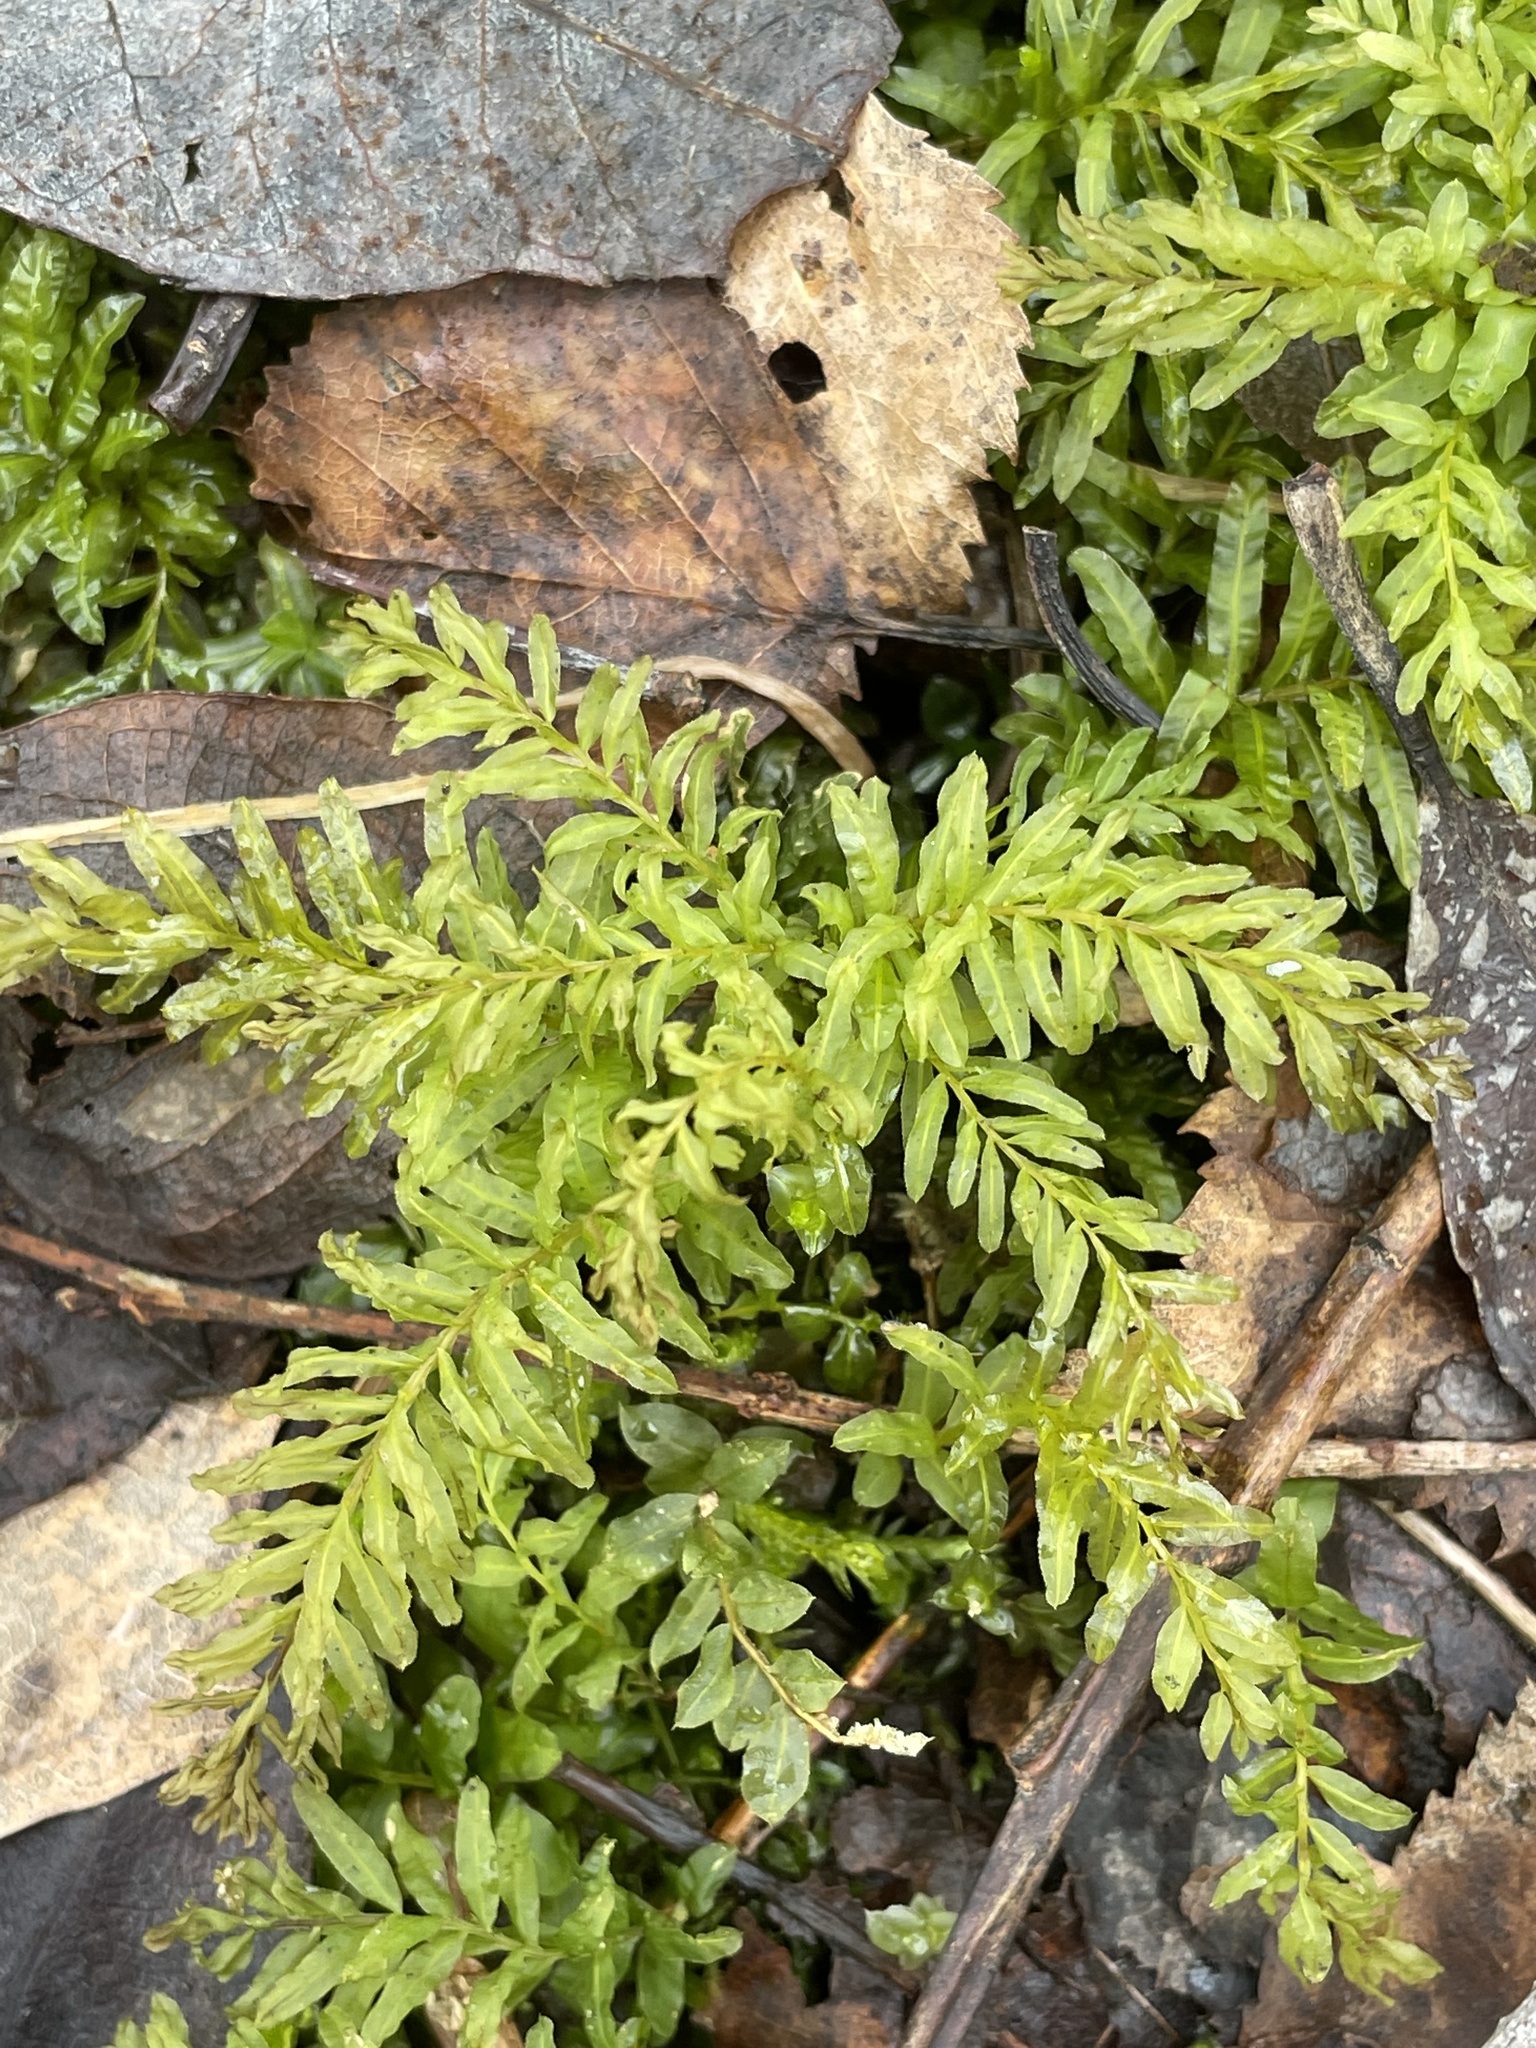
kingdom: Plantae
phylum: Bryophyta
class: Bryopsida
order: Bryales
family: Mniaceae
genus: Plagiomnium
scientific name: Plagiomnium undulatum
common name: Hart's-tongue thyme-moss
